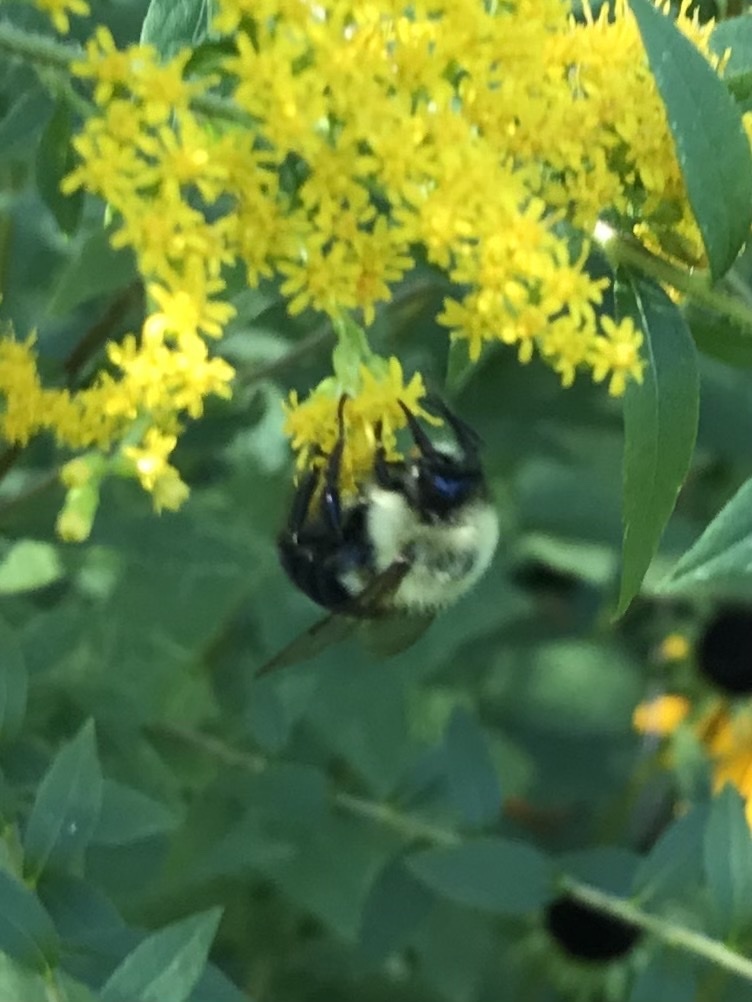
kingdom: Animalia
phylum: Arthropoda
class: Insecta
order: Hymenoptera
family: Apidae
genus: Bombus
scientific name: Bombus impatiens
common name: Common eastern bumble bee
